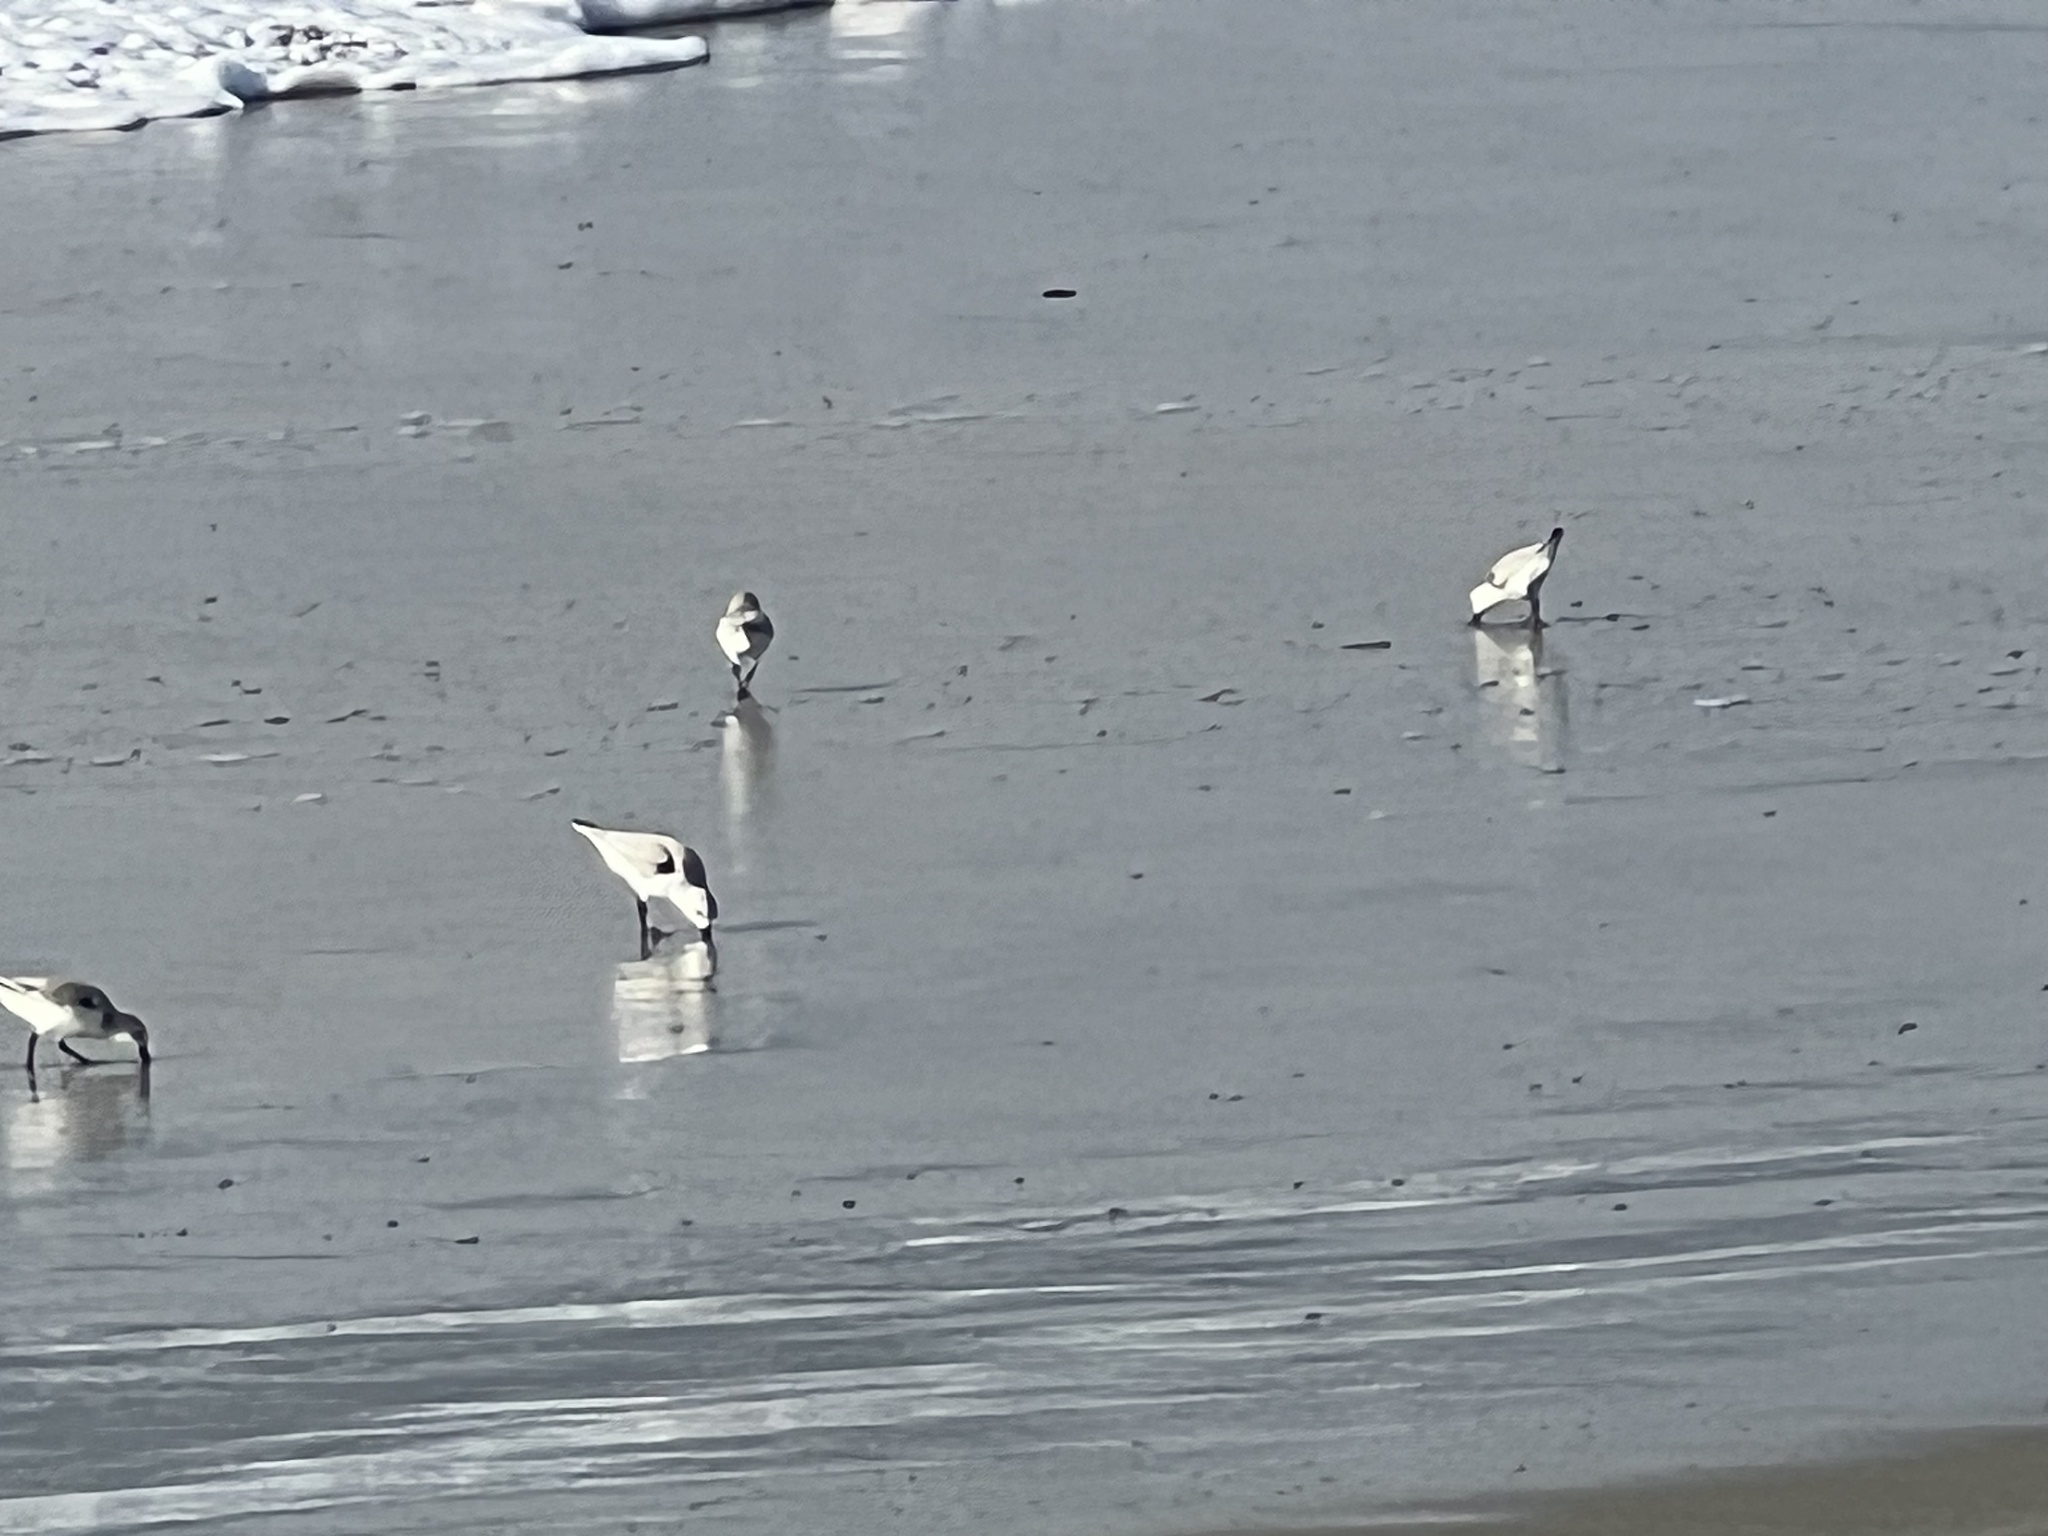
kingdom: Animalia
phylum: Chordata
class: Aves
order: Charadriiformes
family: Scolopacidae
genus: Calidris
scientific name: Calidris alba
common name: Sanderling
